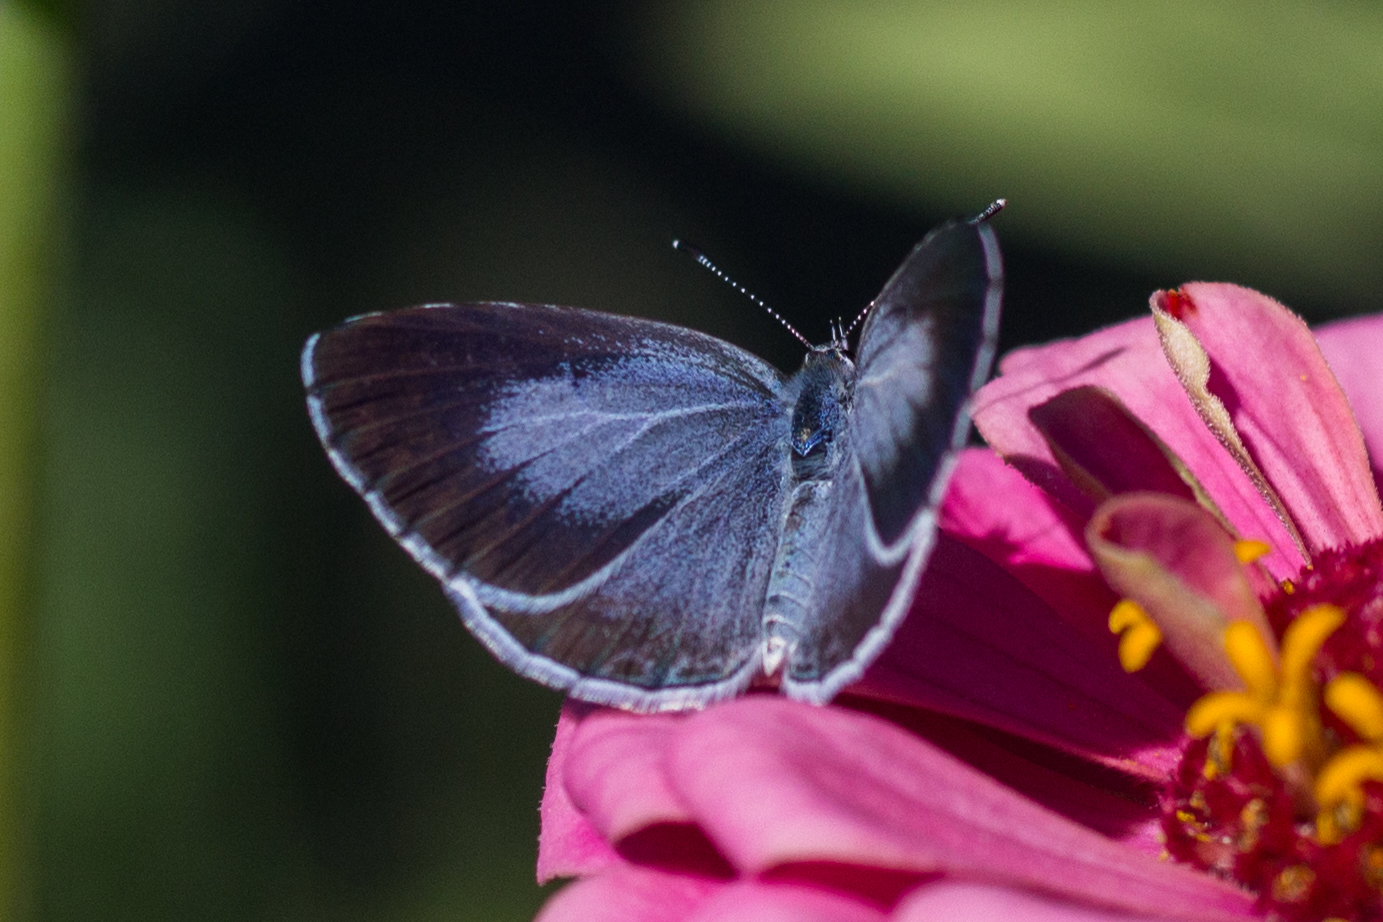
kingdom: Animalia
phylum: Arthropoda
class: Insecta
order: Lepidoptera
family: Lycaenidae
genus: Celastrina
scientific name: Celastrina argiolus
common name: Holly blue
